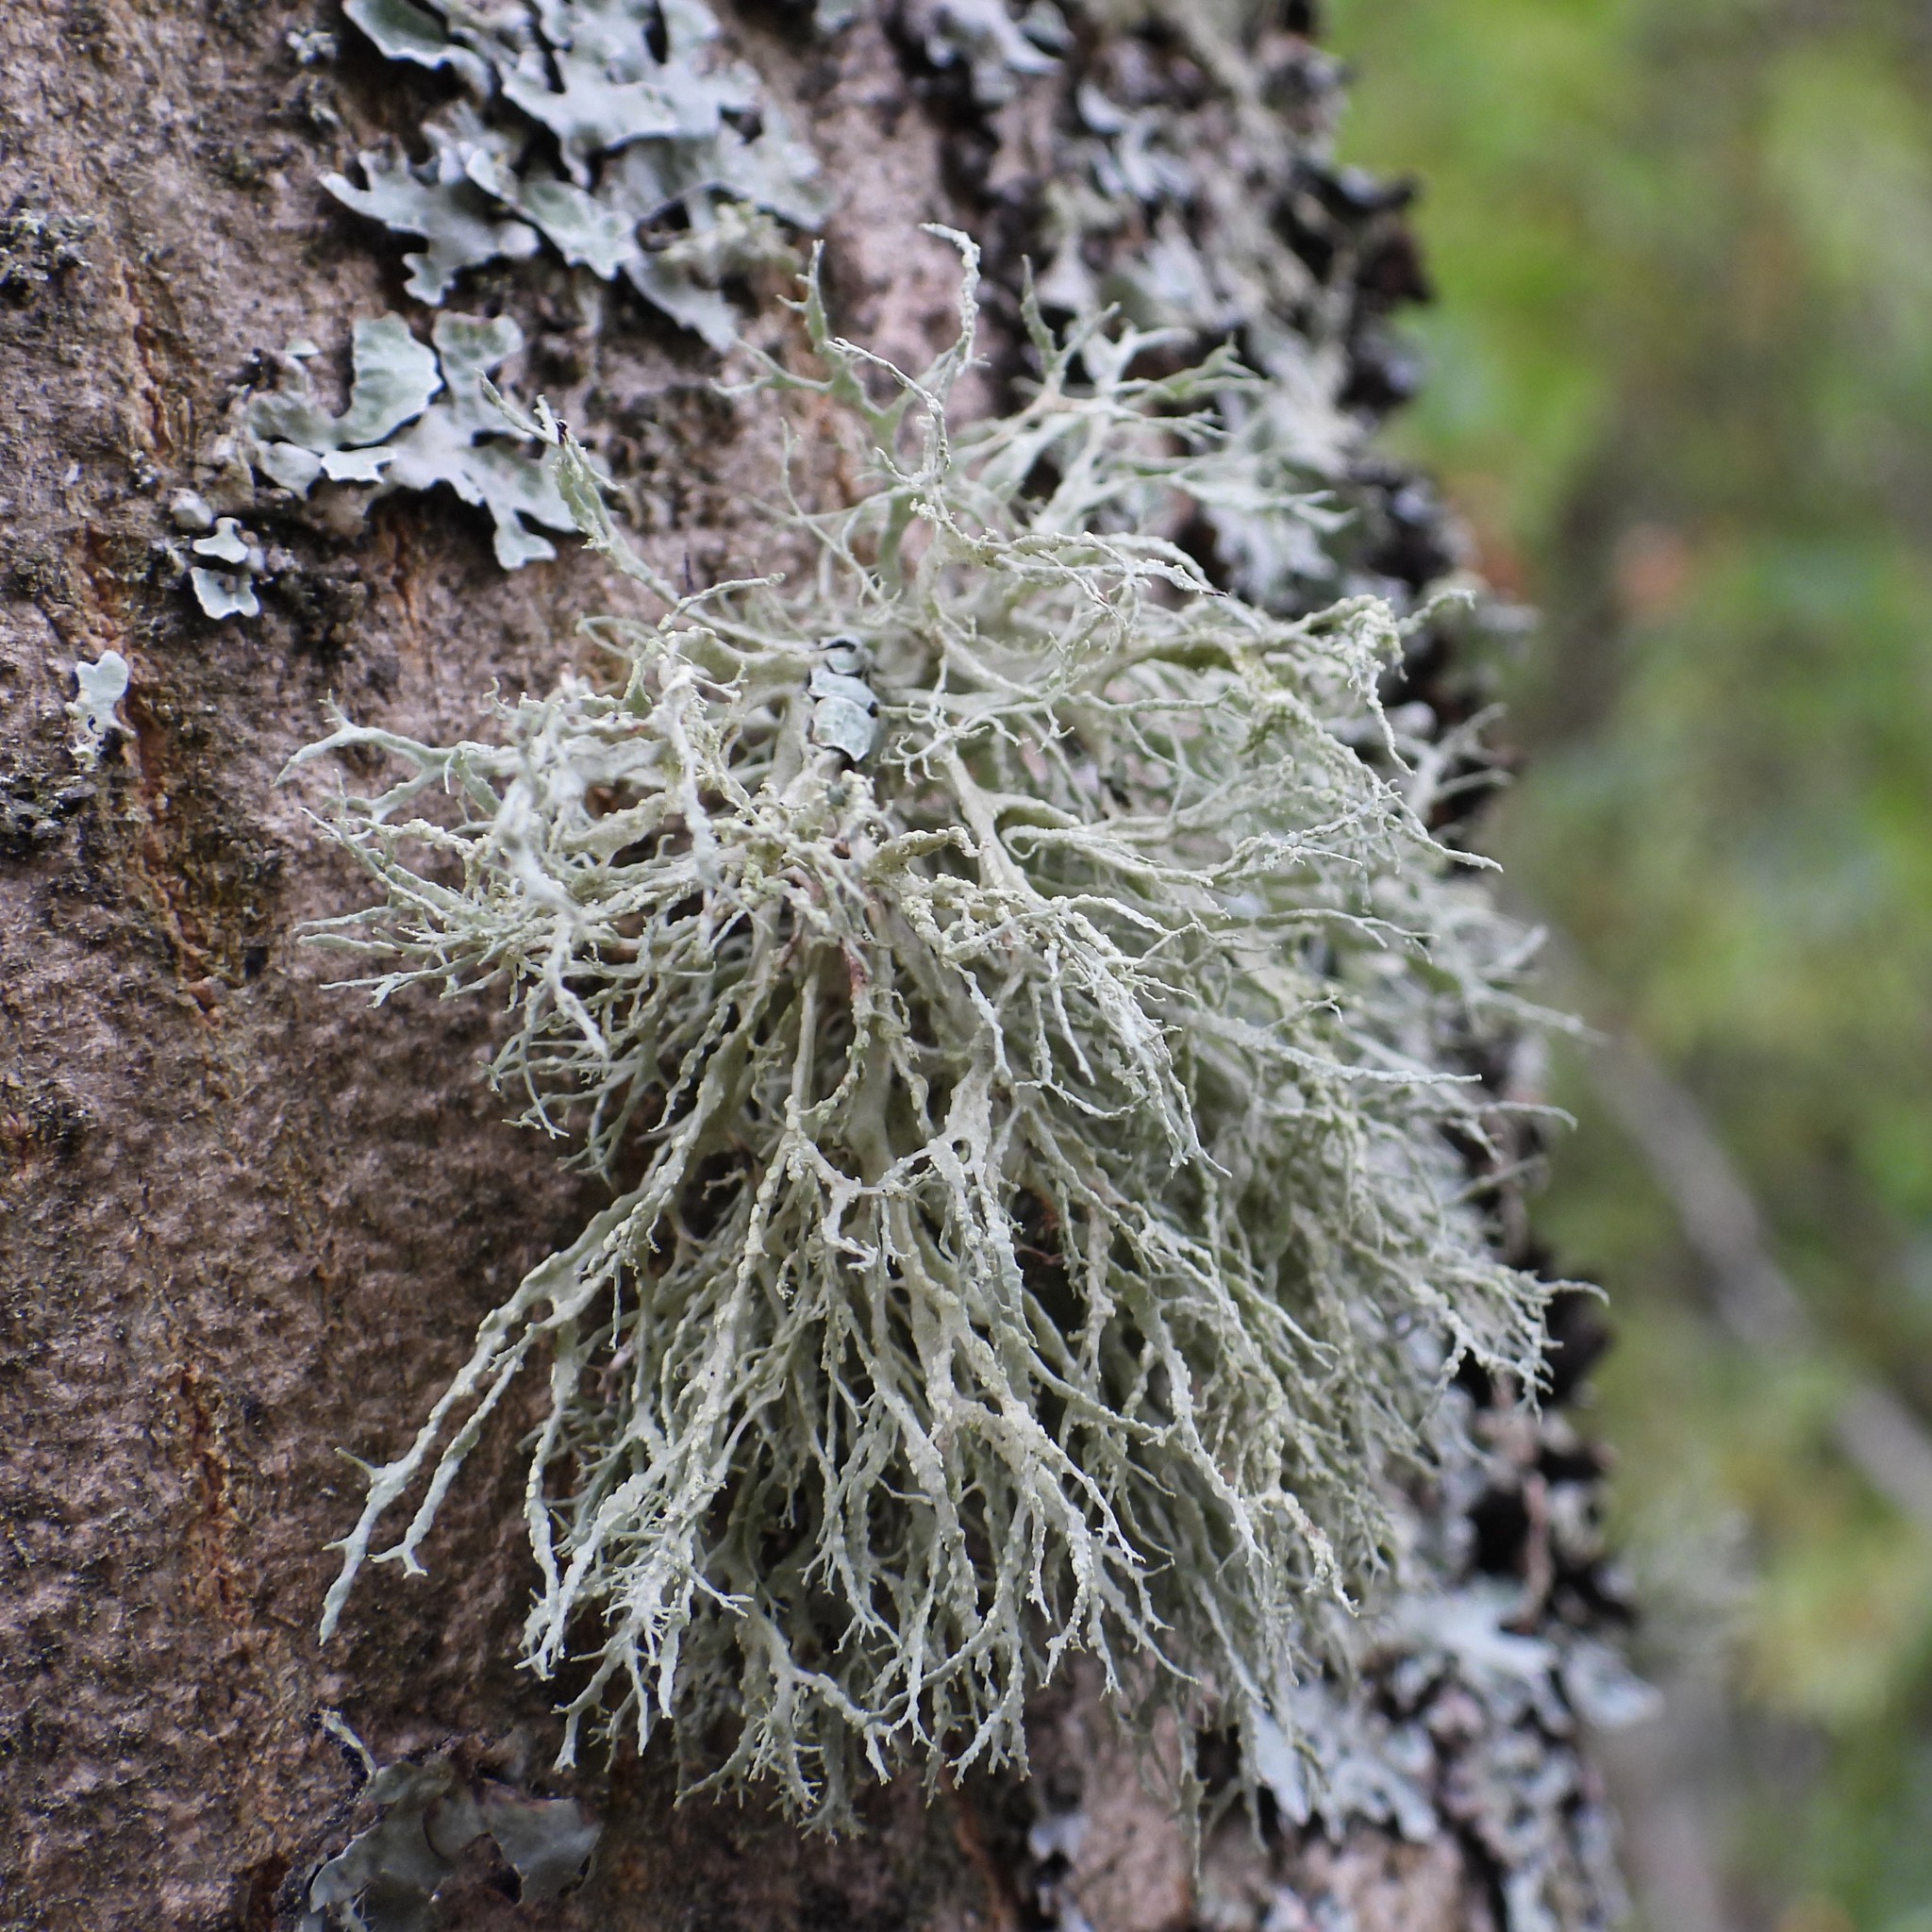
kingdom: Fungi
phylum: Ascomycota
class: Lecanoromycetes
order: Lecanorales
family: Ramalinaceae
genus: Ramalina
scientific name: Ramalina farinacea
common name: Farinose cartilage lichen
